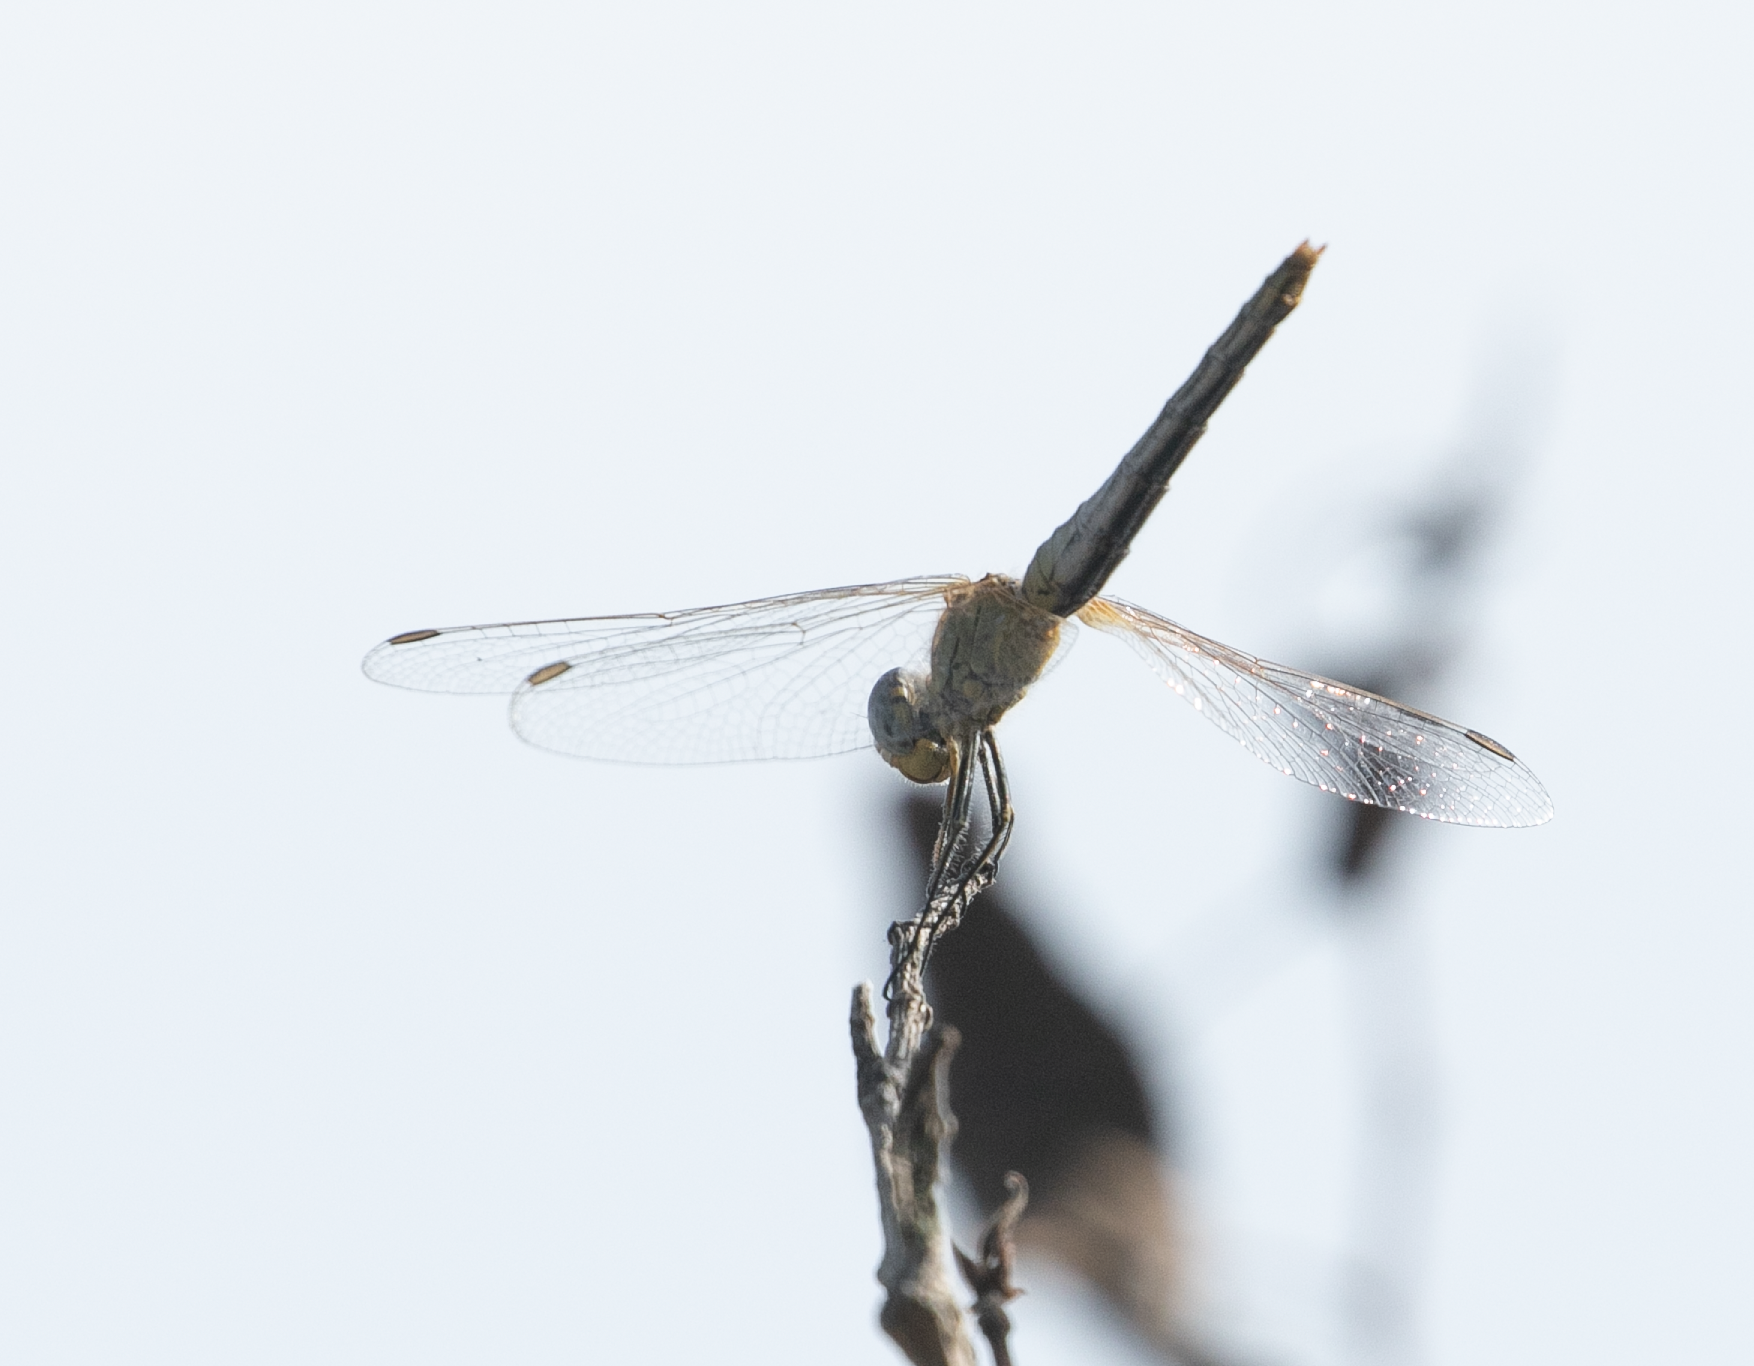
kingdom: Animalia
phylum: Arthropoda
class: Insecta
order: Odonata
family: Libellulidae
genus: Sympetrum
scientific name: Sympetrum fonscolombii
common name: Red-veined darter
